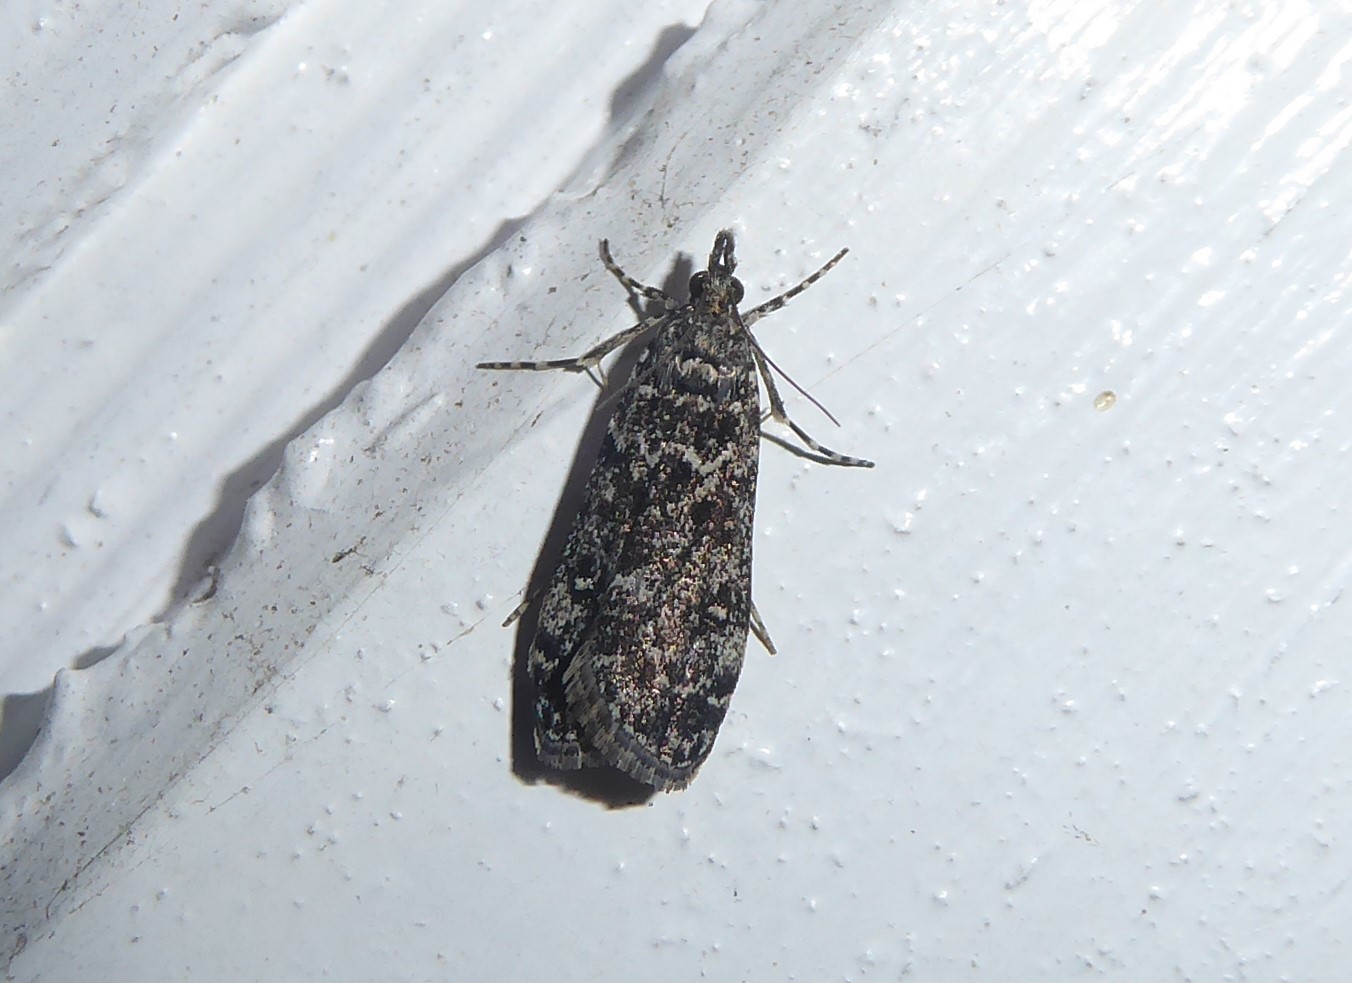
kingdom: Animalia
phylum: Arthropoda
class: Insecta
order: Lepidoptera
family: Crambidae
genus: Eudonia
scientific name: Eudonia philerga
